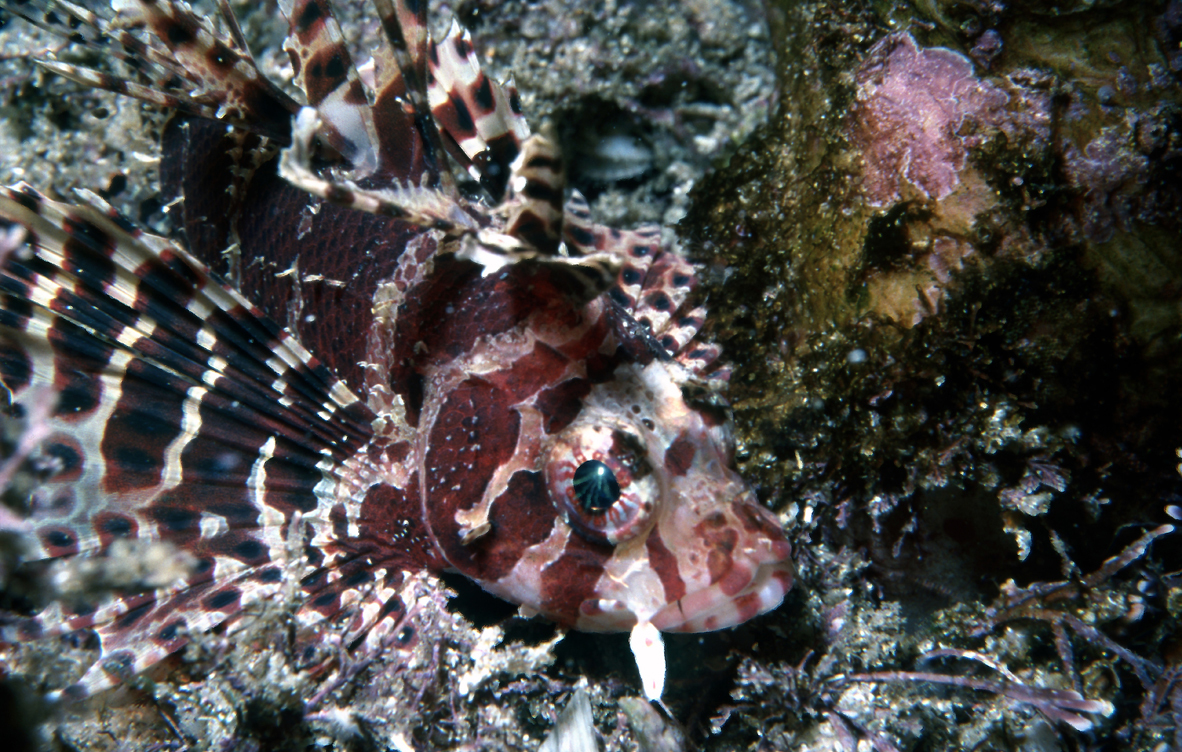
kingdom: Animalia
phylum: Chordata
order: Scorpaeniformes
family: Scorpaenidae
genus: Dendrochirus
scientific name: Dendrochirus brachypterus
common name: Shortfin turkeyfish
